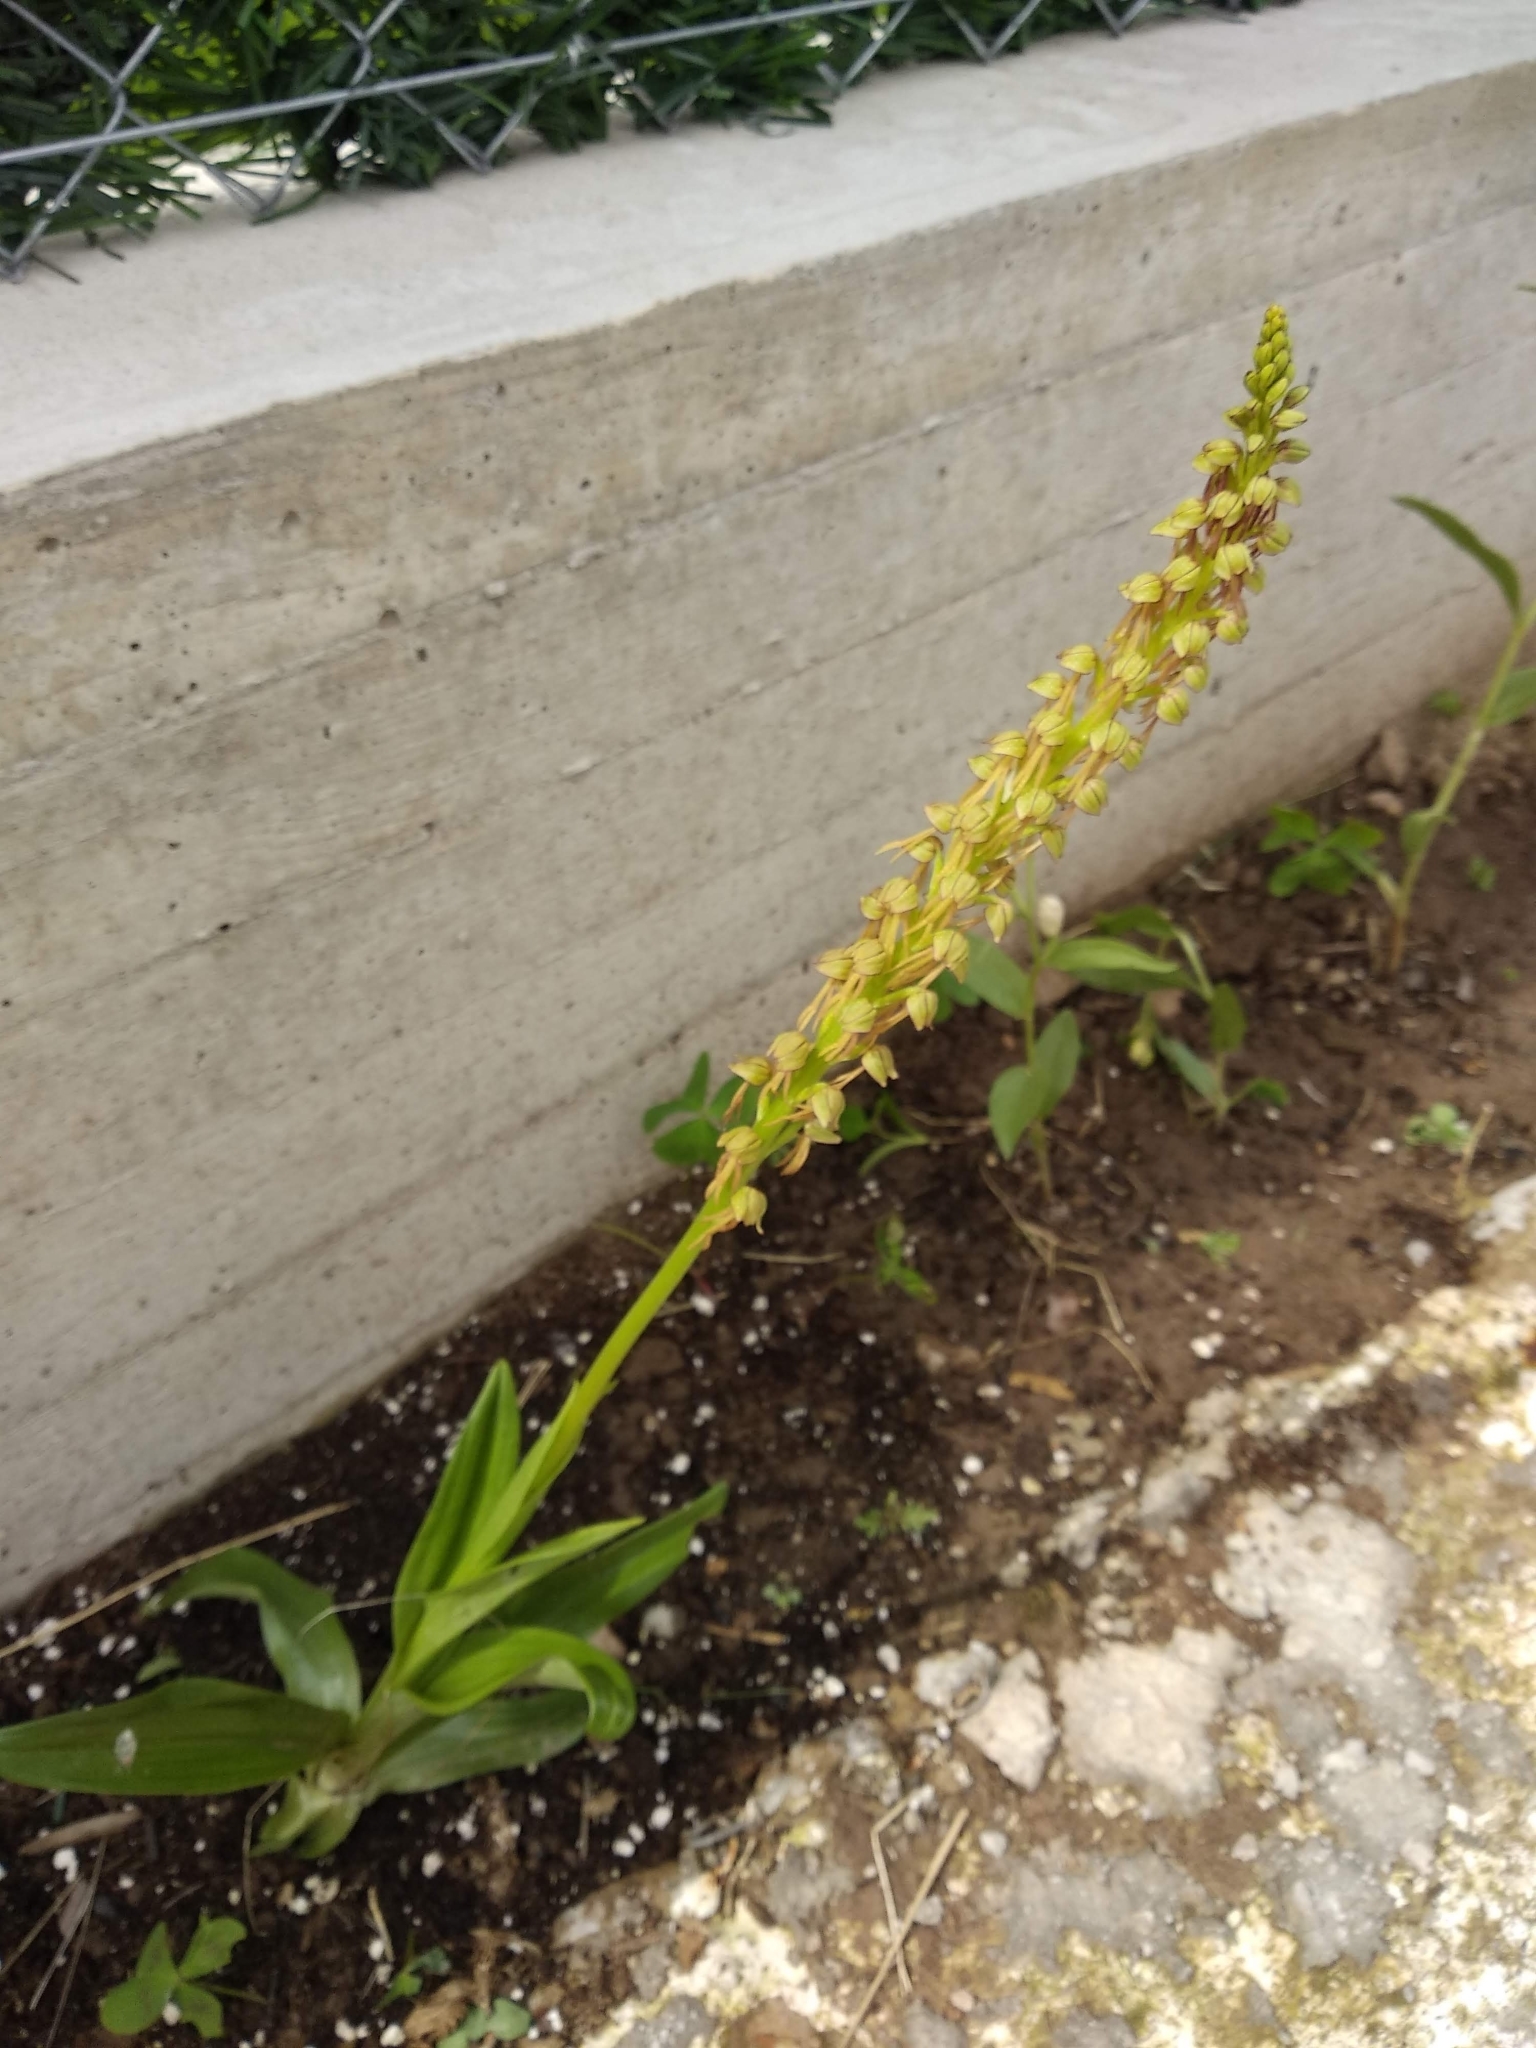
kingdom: Plantae
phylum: Tracheophyta
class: Liliopsida
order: Asparagales
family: Orchidaceae
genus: Orchis
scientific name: Orchis anthropophora
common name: Man orchid
